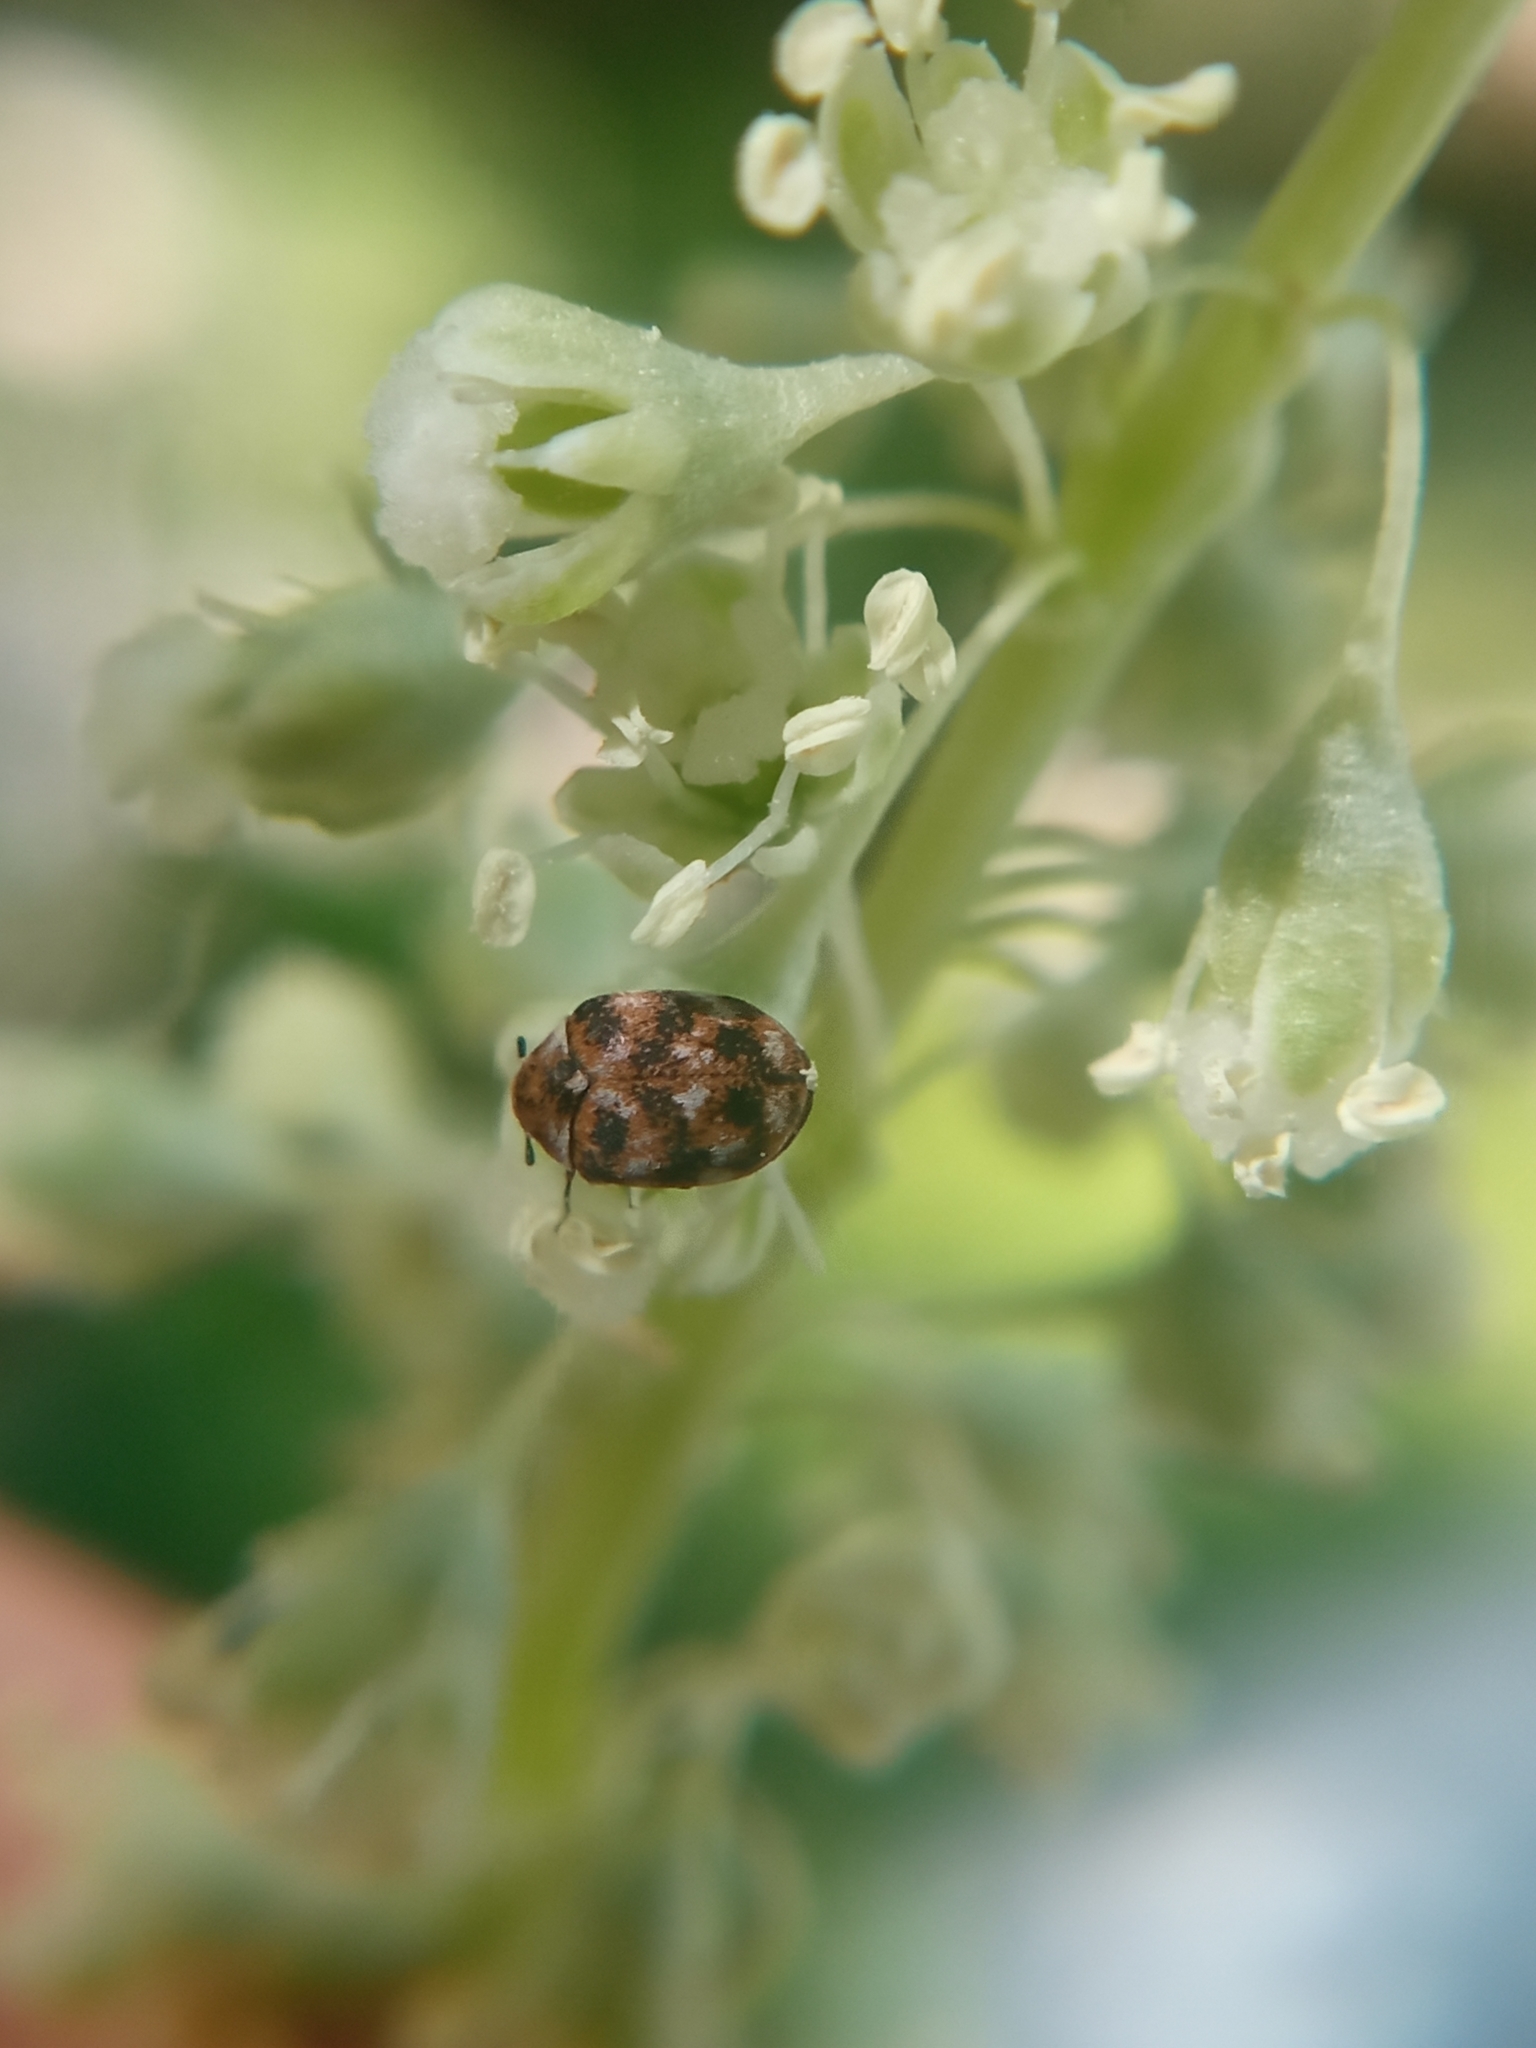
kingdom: Animalia
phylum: Arthropoda
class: Insecta
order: Coleoptera
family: Dermestidae
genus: Anthrenus
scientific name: Anthrenus verbasci
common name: Varied carpet beetle
